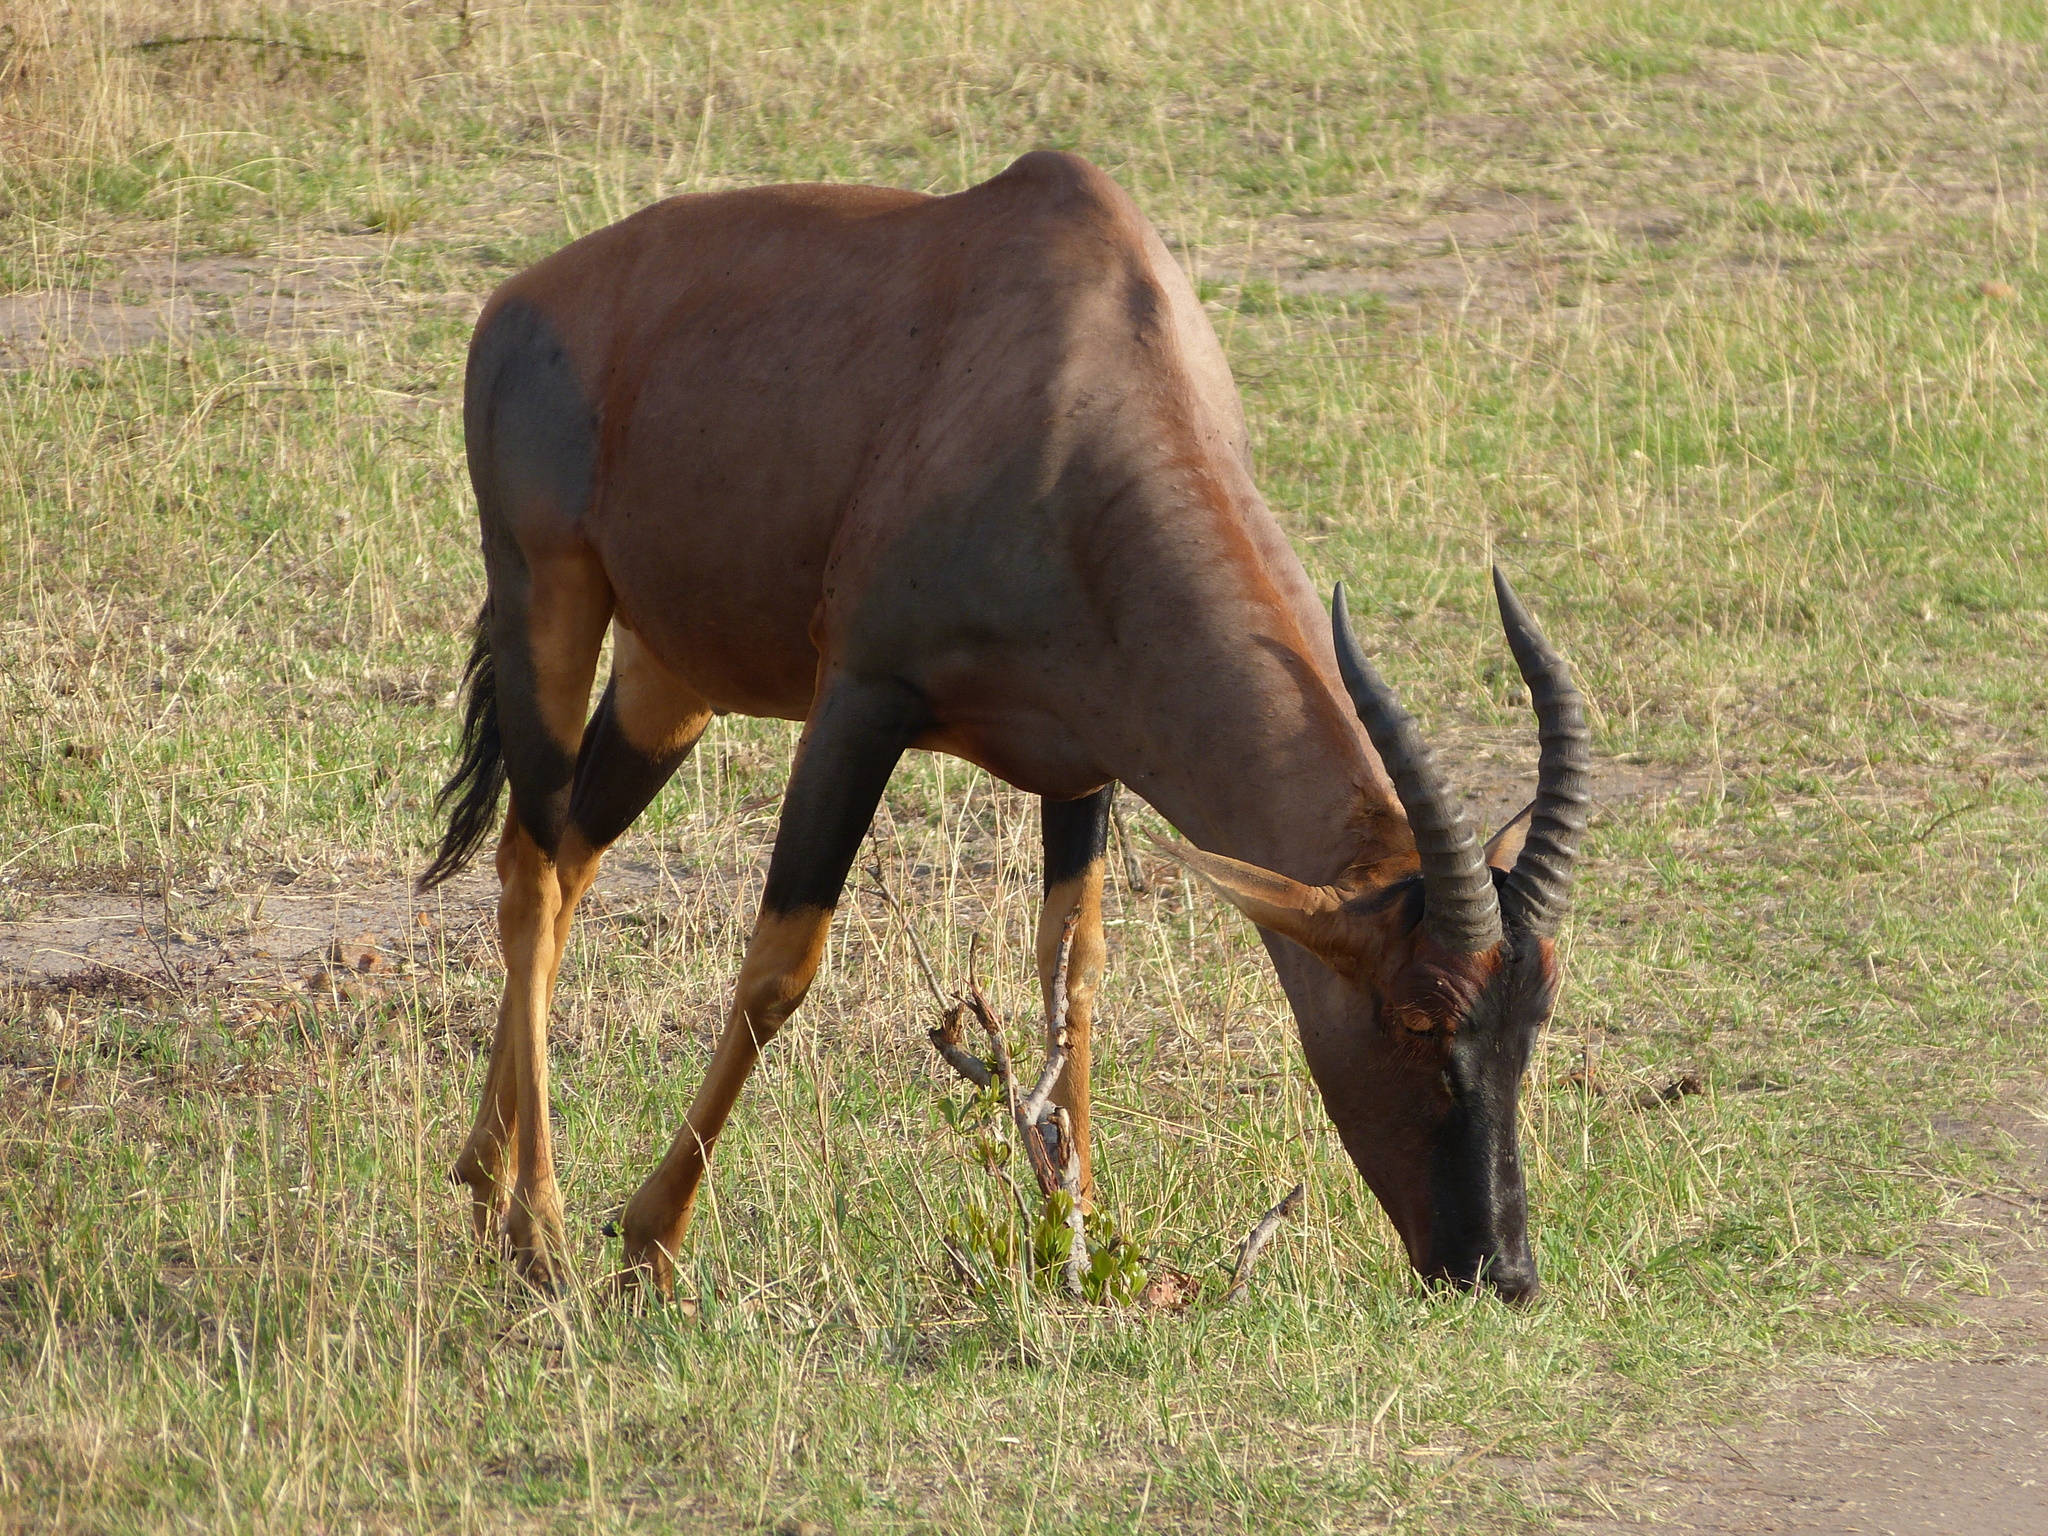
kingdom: Animalia
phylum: Chordata
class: Mammalia
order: Artiodactyla
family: Bovidae
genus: Damaliscus
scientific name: Damaliscus korrigum
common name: Topi
